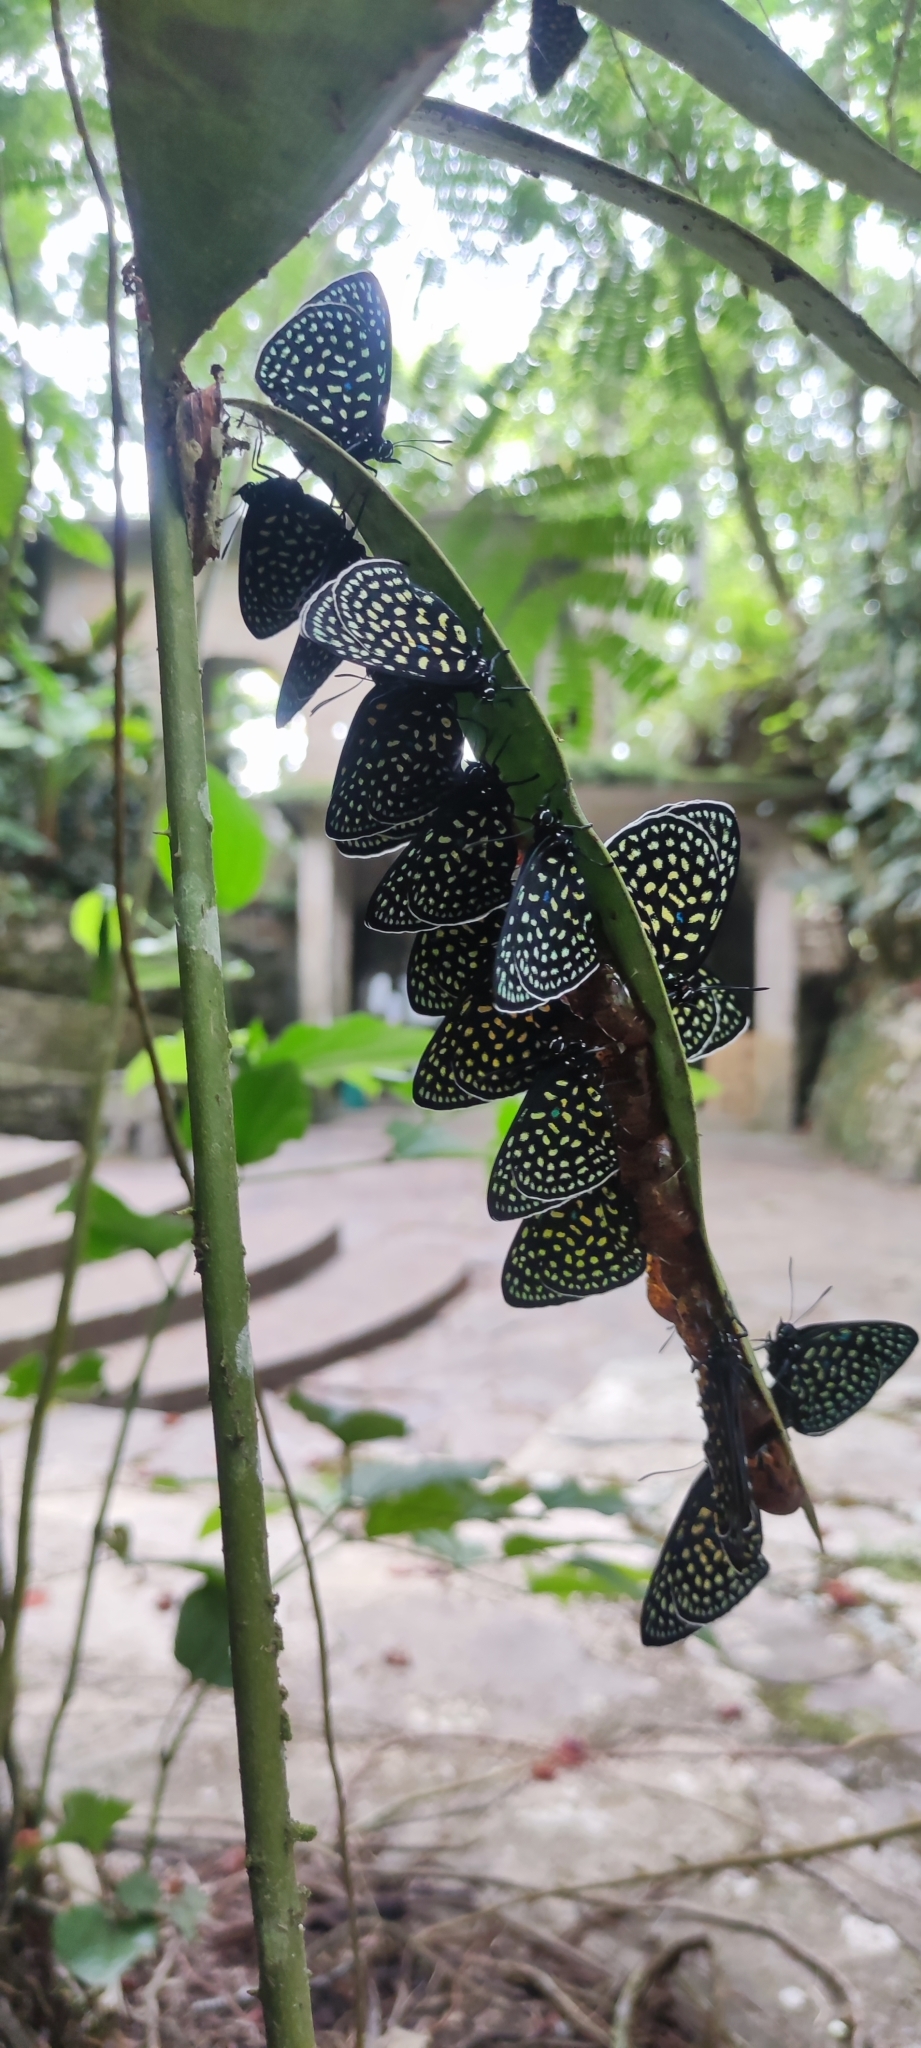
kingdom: Animalia
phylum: Arthropoda
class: Insecta
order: Lepidoptera
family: Lycaenidae
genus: Eumaeus
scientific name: Eumaeus childrenae
